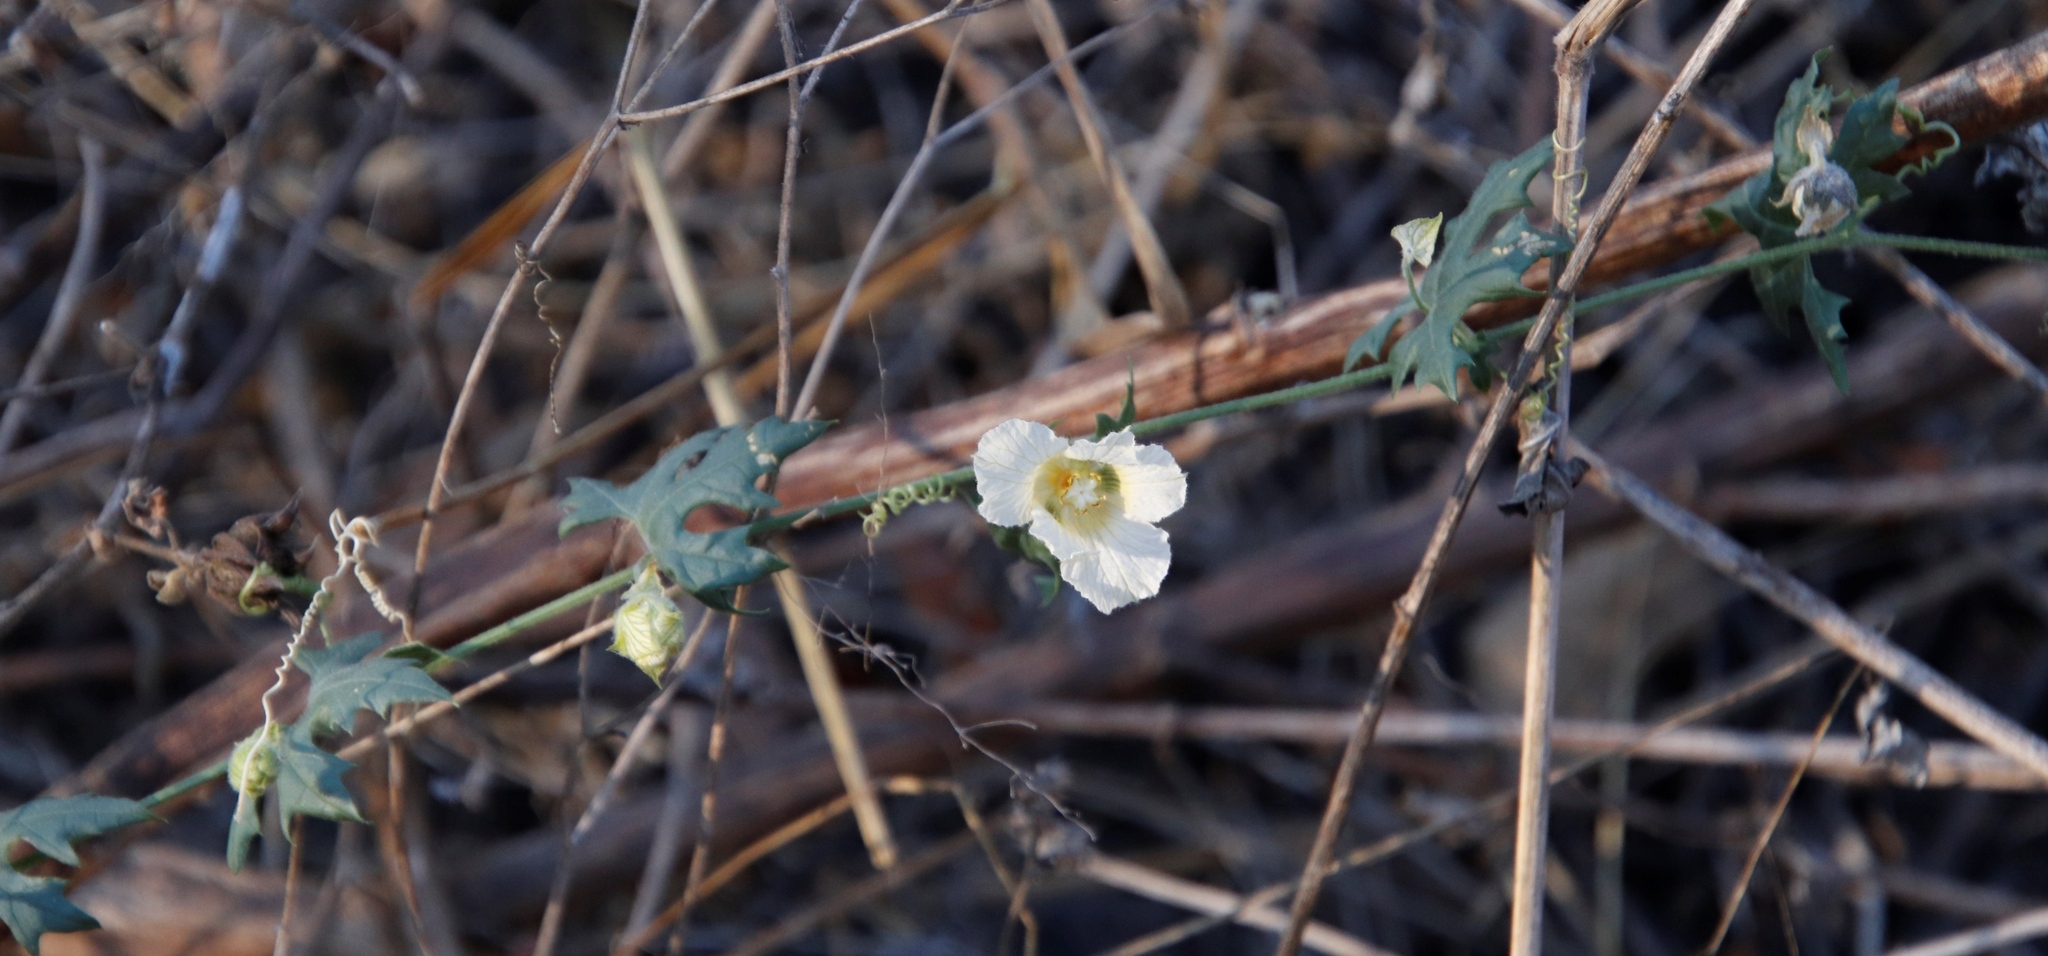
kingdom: Plantae
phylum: Tracheophyta
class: Magnoliopsida
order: Cucurbitales
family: Cucurbitaceae
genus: Momordica
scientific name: Momordica balsamina
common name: Southern balsampear
